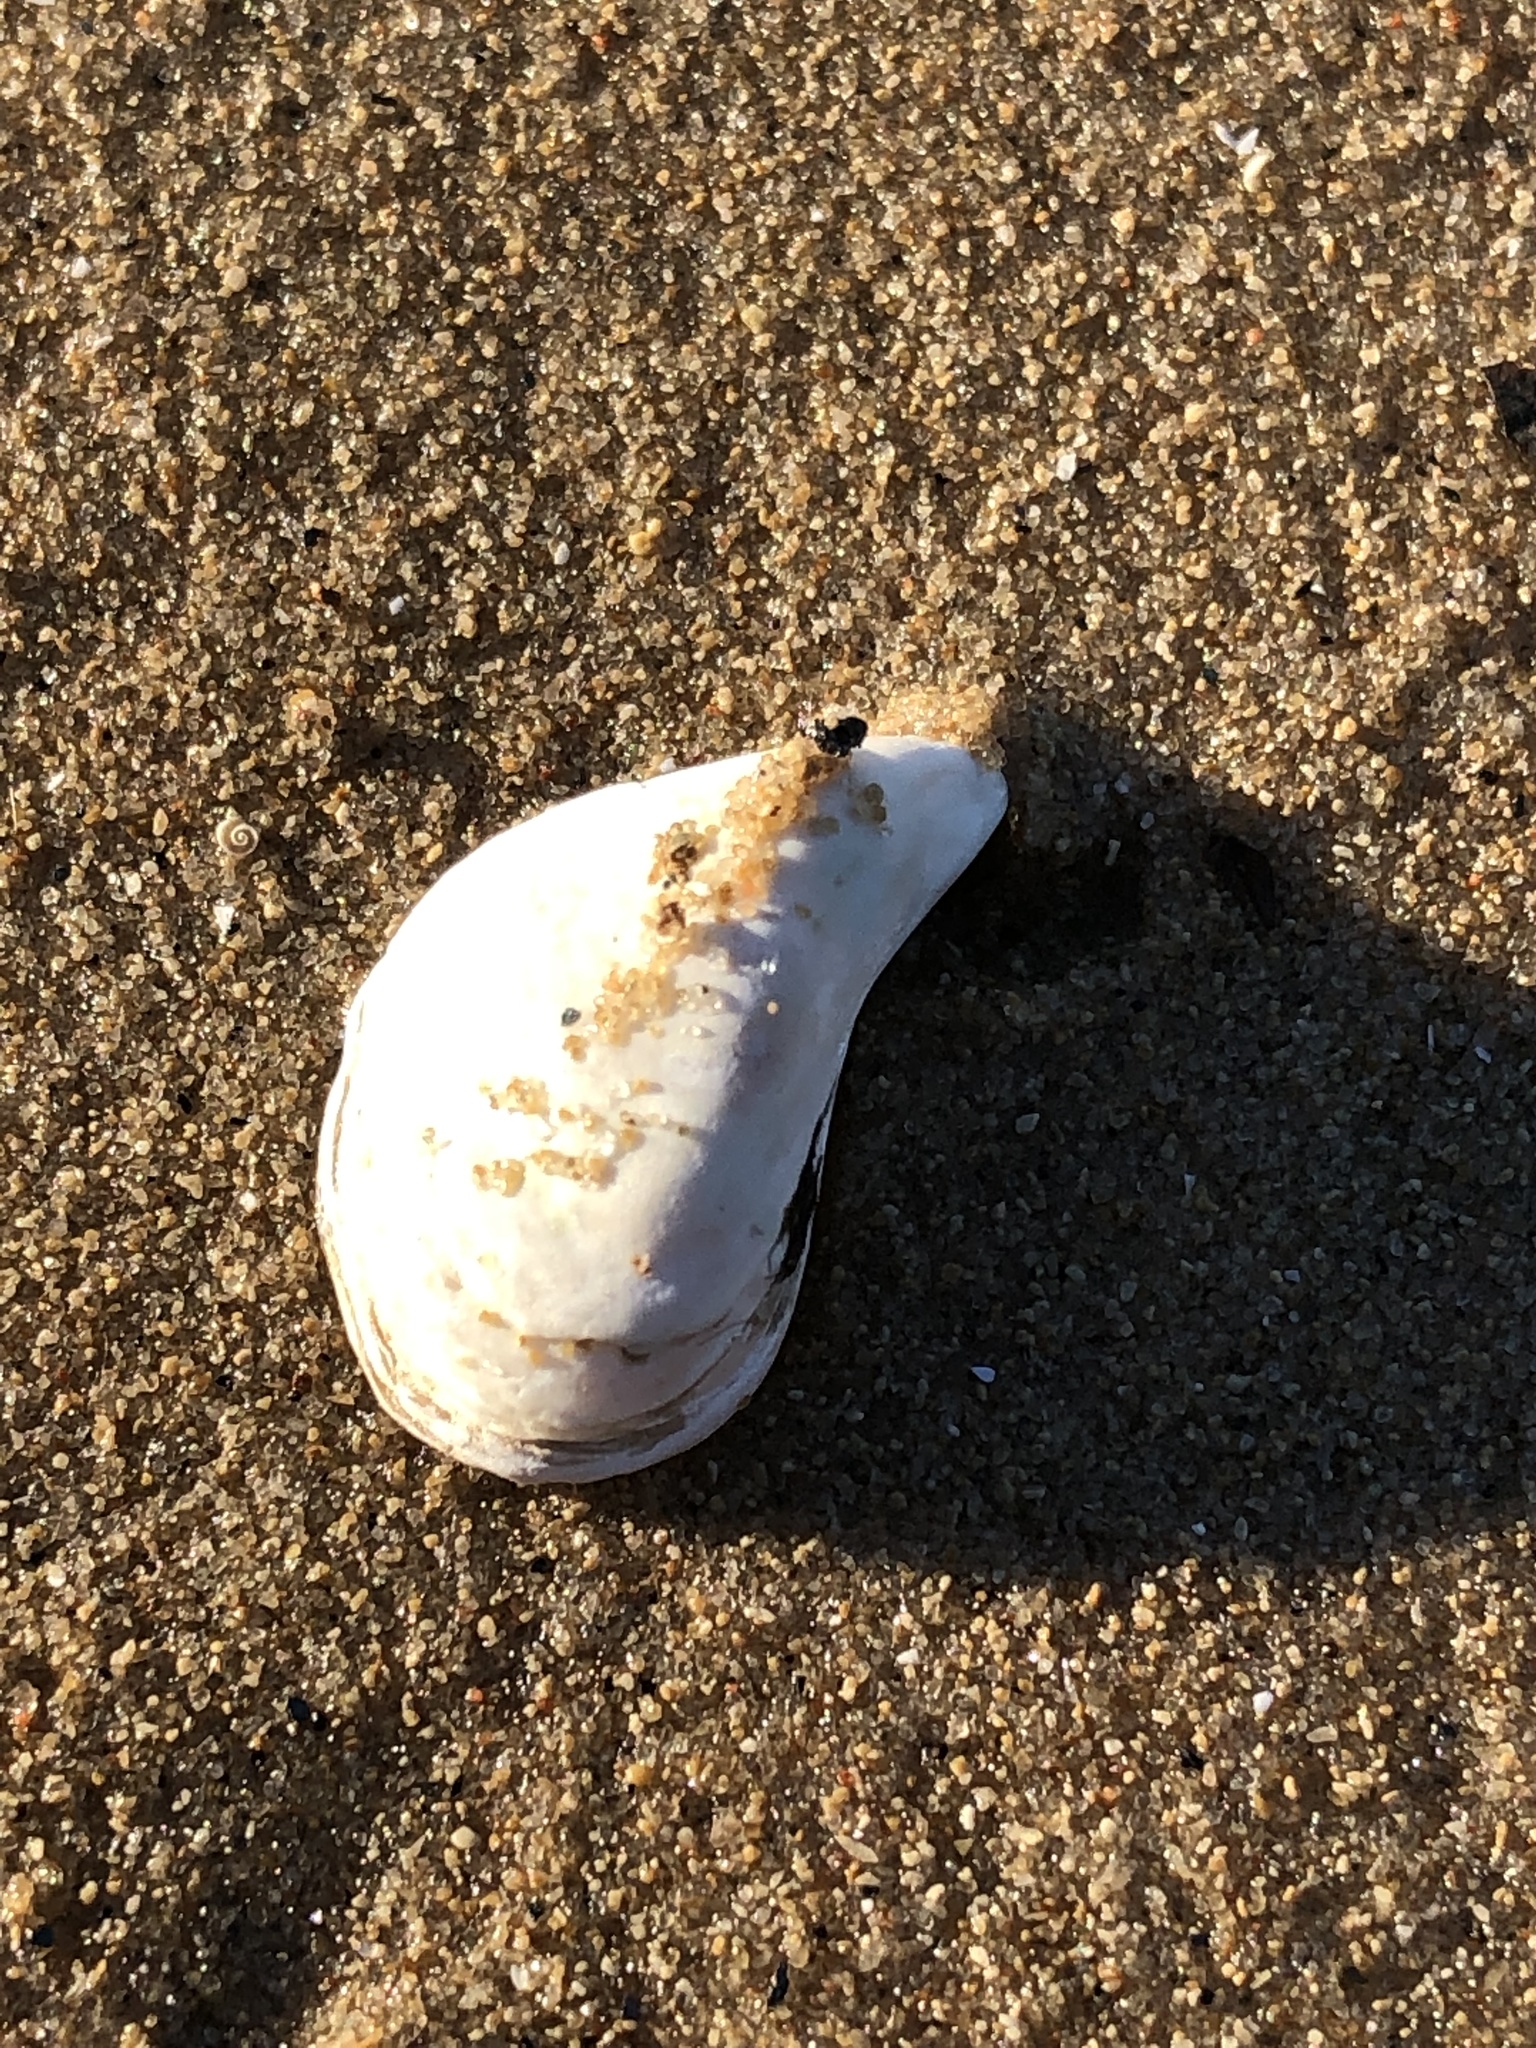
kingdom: Animalia
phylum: Mollusca
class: Bivalvia
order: Myida
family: Dreissenidae
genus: Dreissena
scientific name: Dreissena bugensis
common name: Quagga mussel
